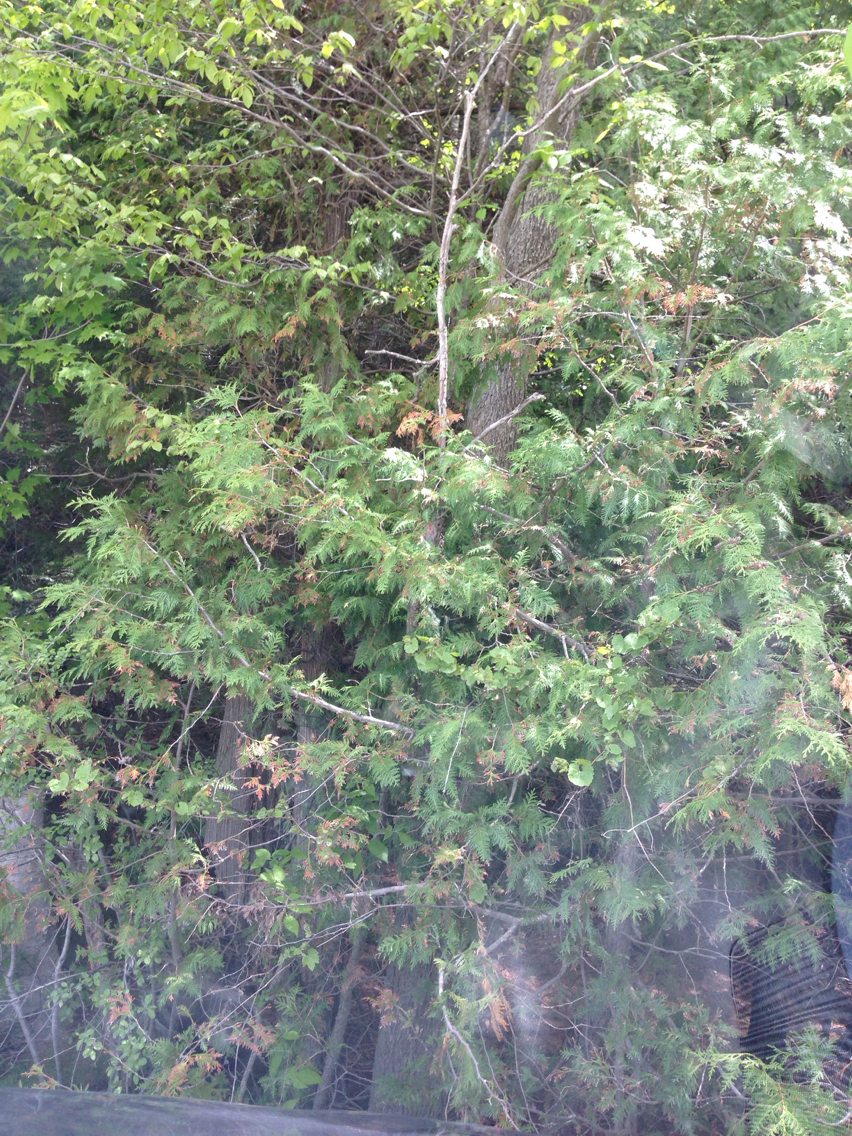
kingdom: Plantae
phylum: Tracheophyta
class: Pinopsida
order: Pinales
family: Cupressaceae
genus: Thuja
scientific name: Thuja occidentalis
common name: Northern white-cedar
